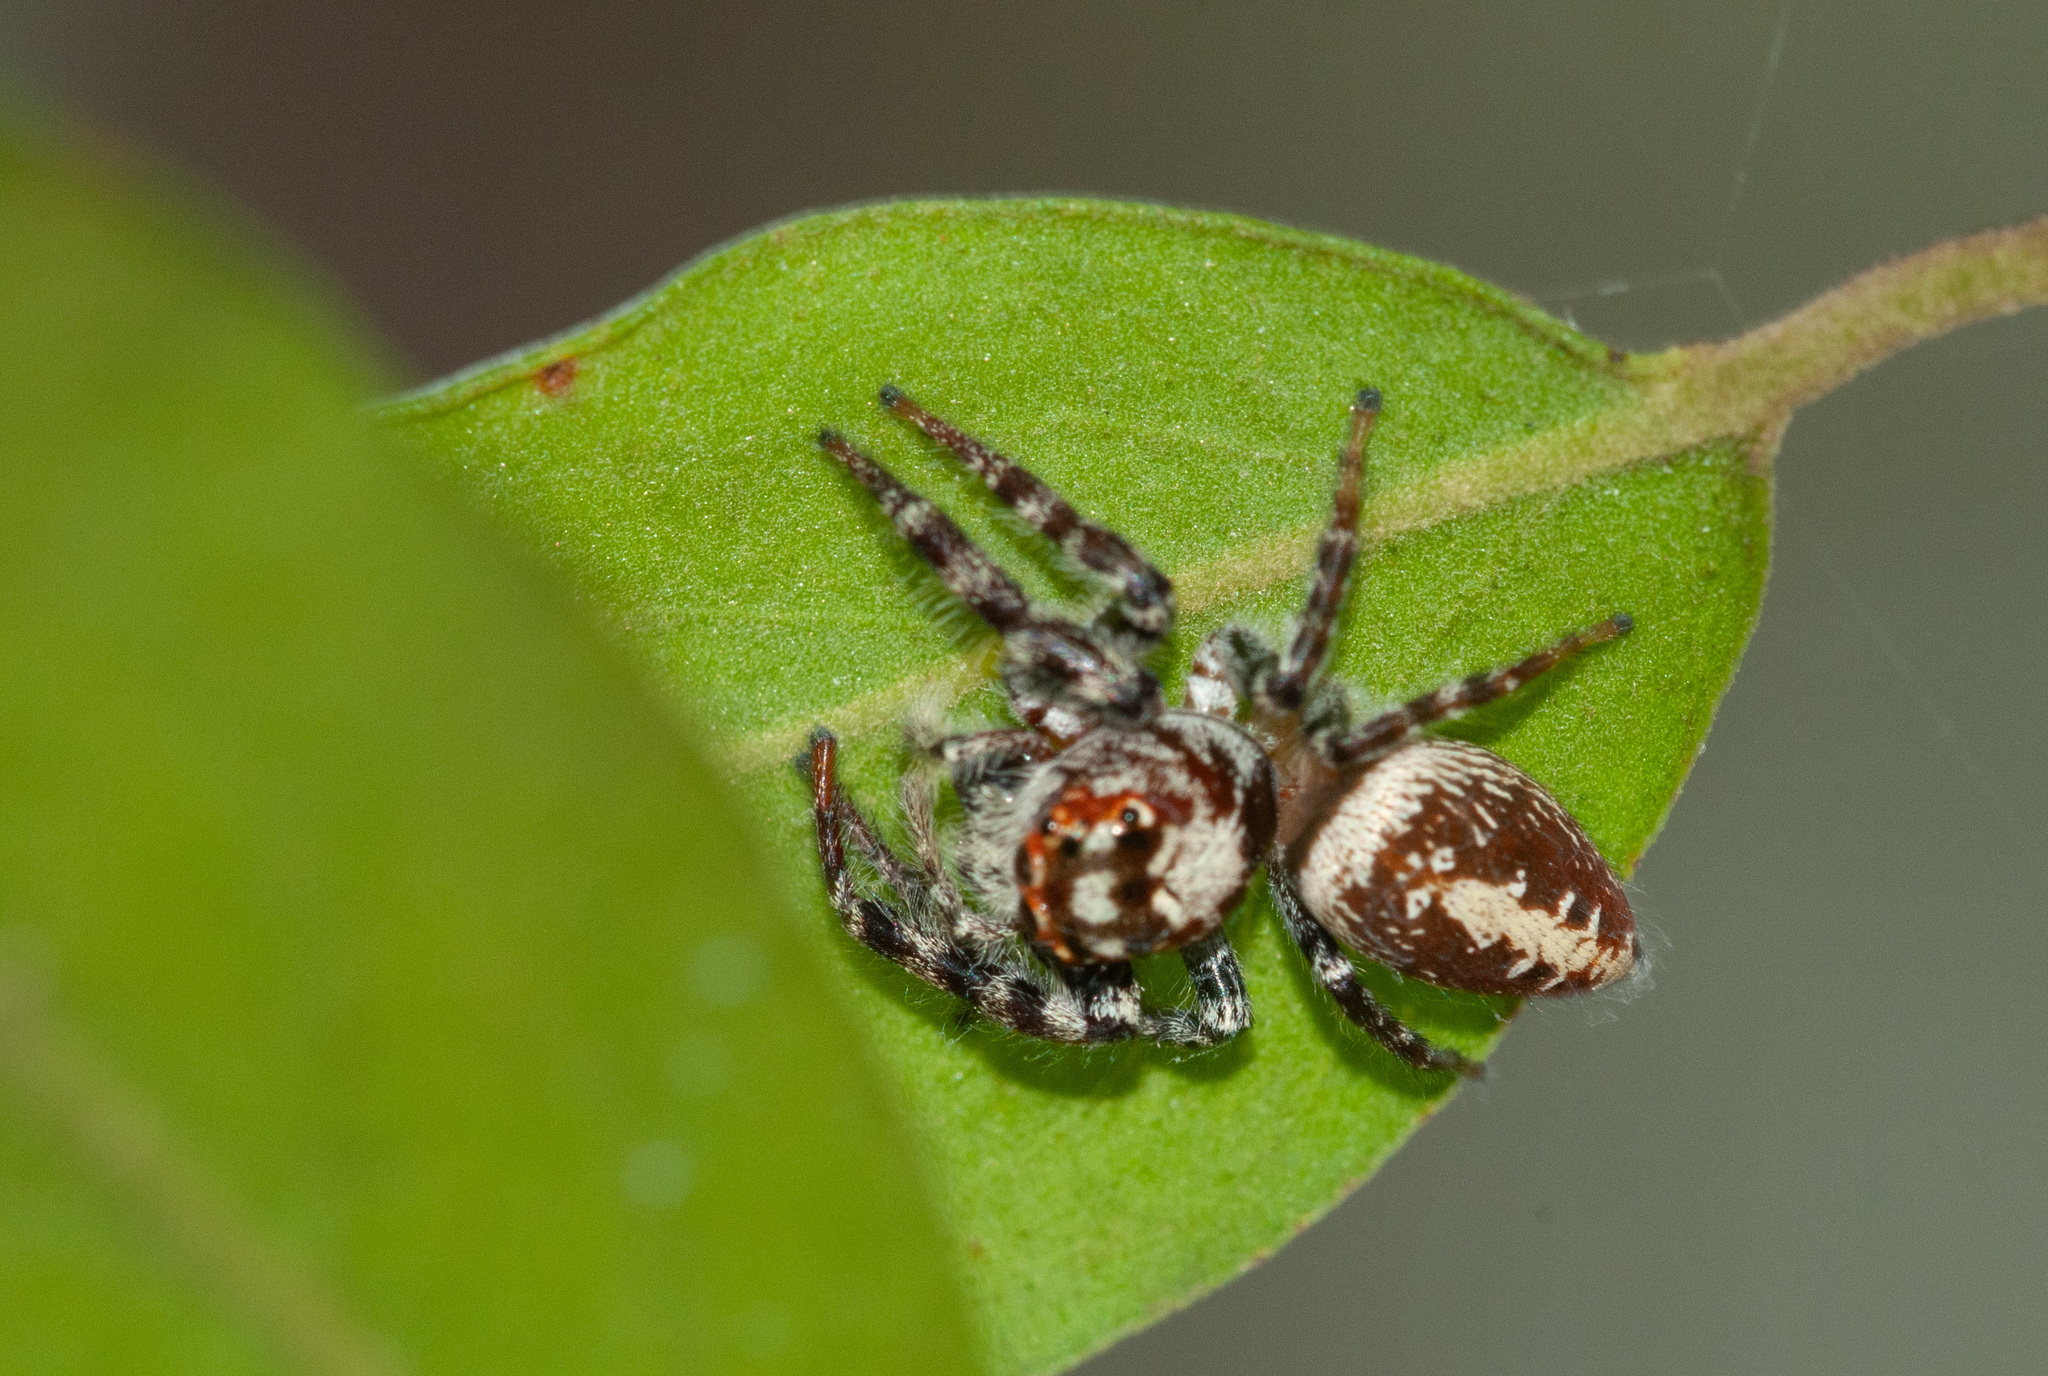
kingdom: Animalia
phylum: Arthropoda
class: Arachnida
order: Araneae
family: Salticidae
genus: Opisthoncus
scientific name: Opisthoncus quadratarius
